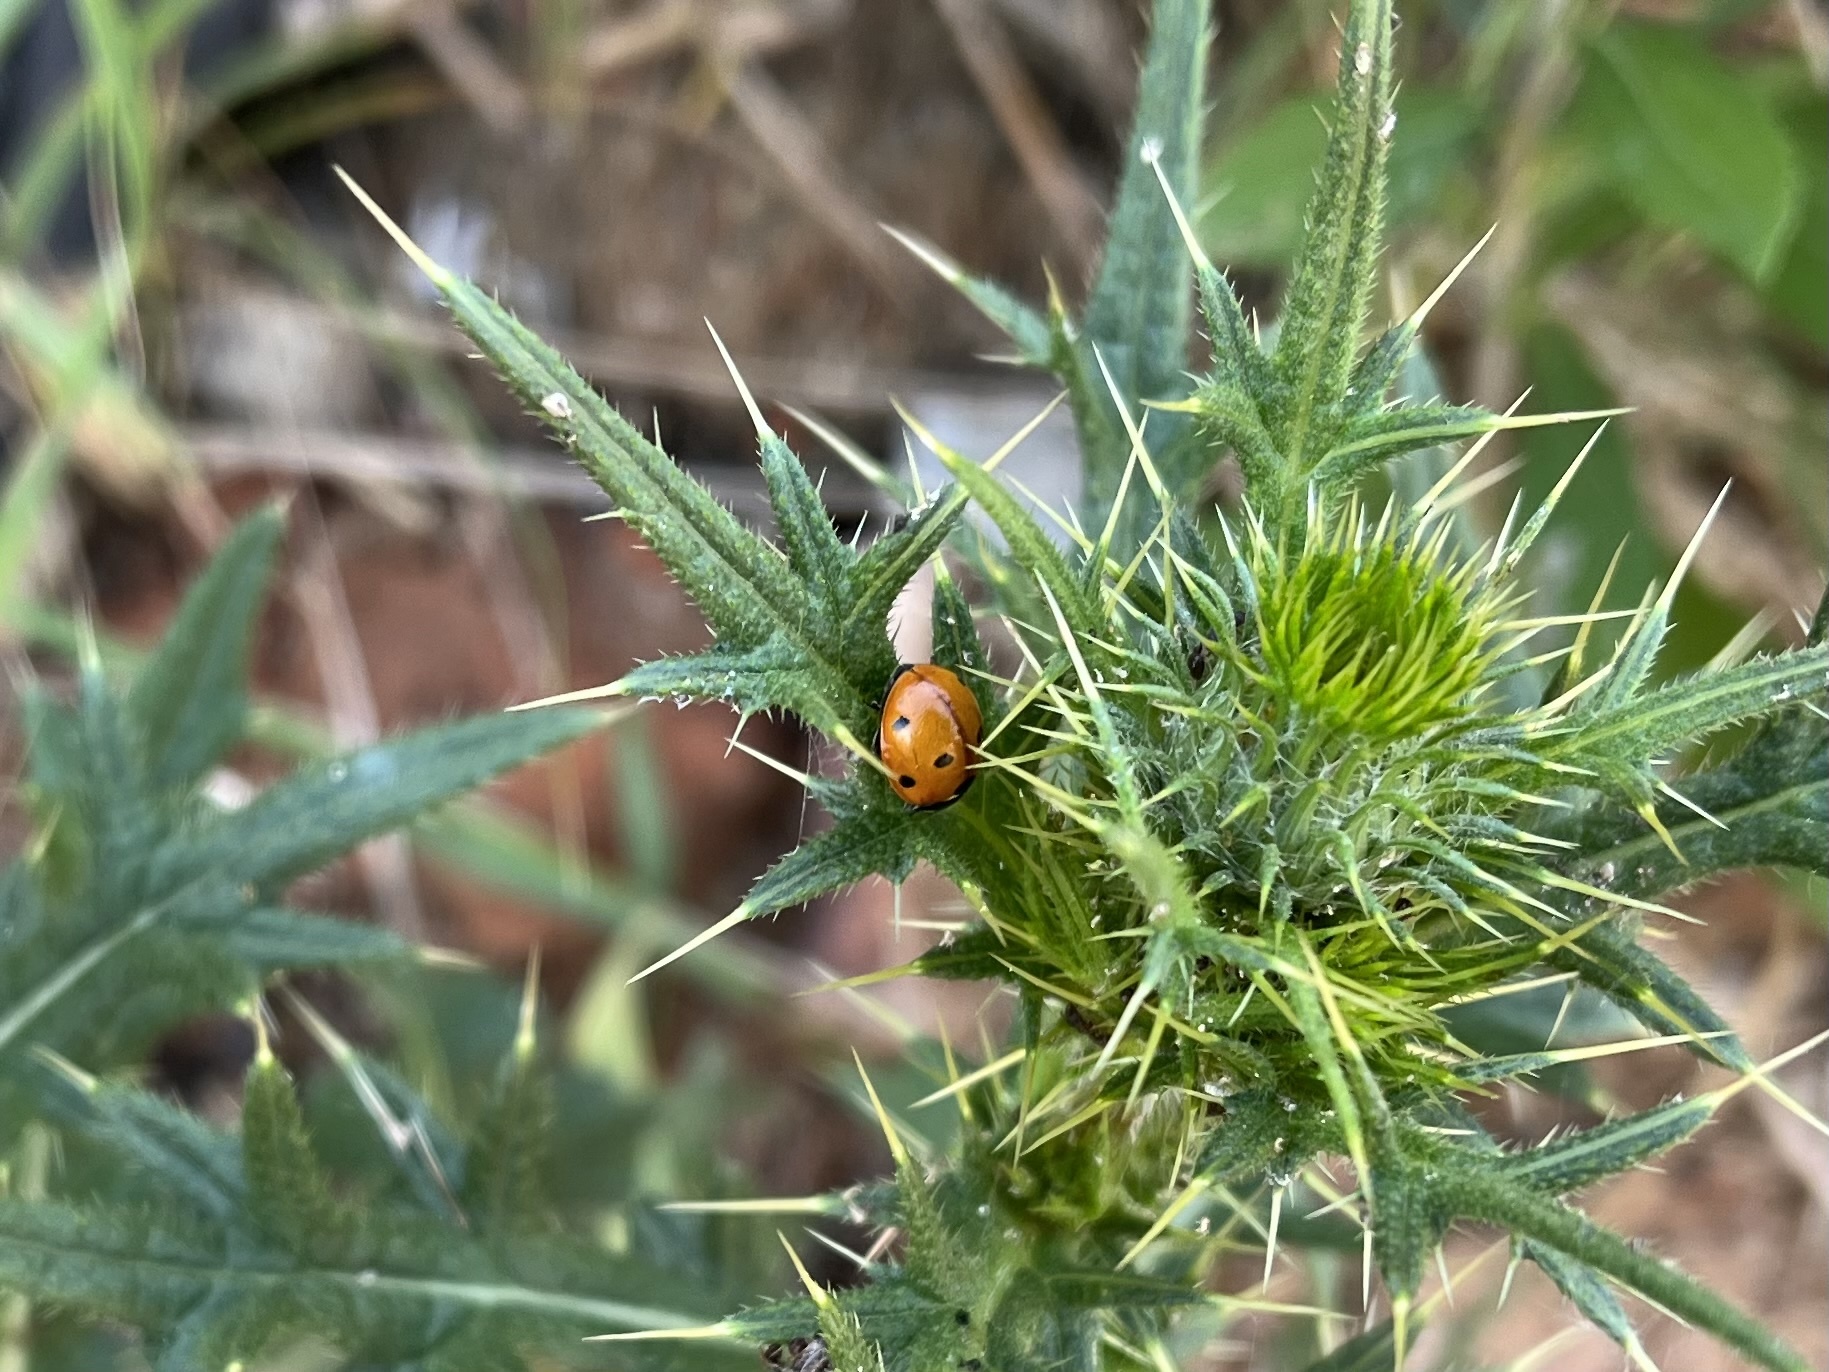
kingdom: Animalia
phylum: Arthropoda
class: Insecta
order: Coleoptera
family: Coccinellidae
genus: Coccinella
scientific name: Coccinella septempunctata
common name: Sevenspotted lady beetle
